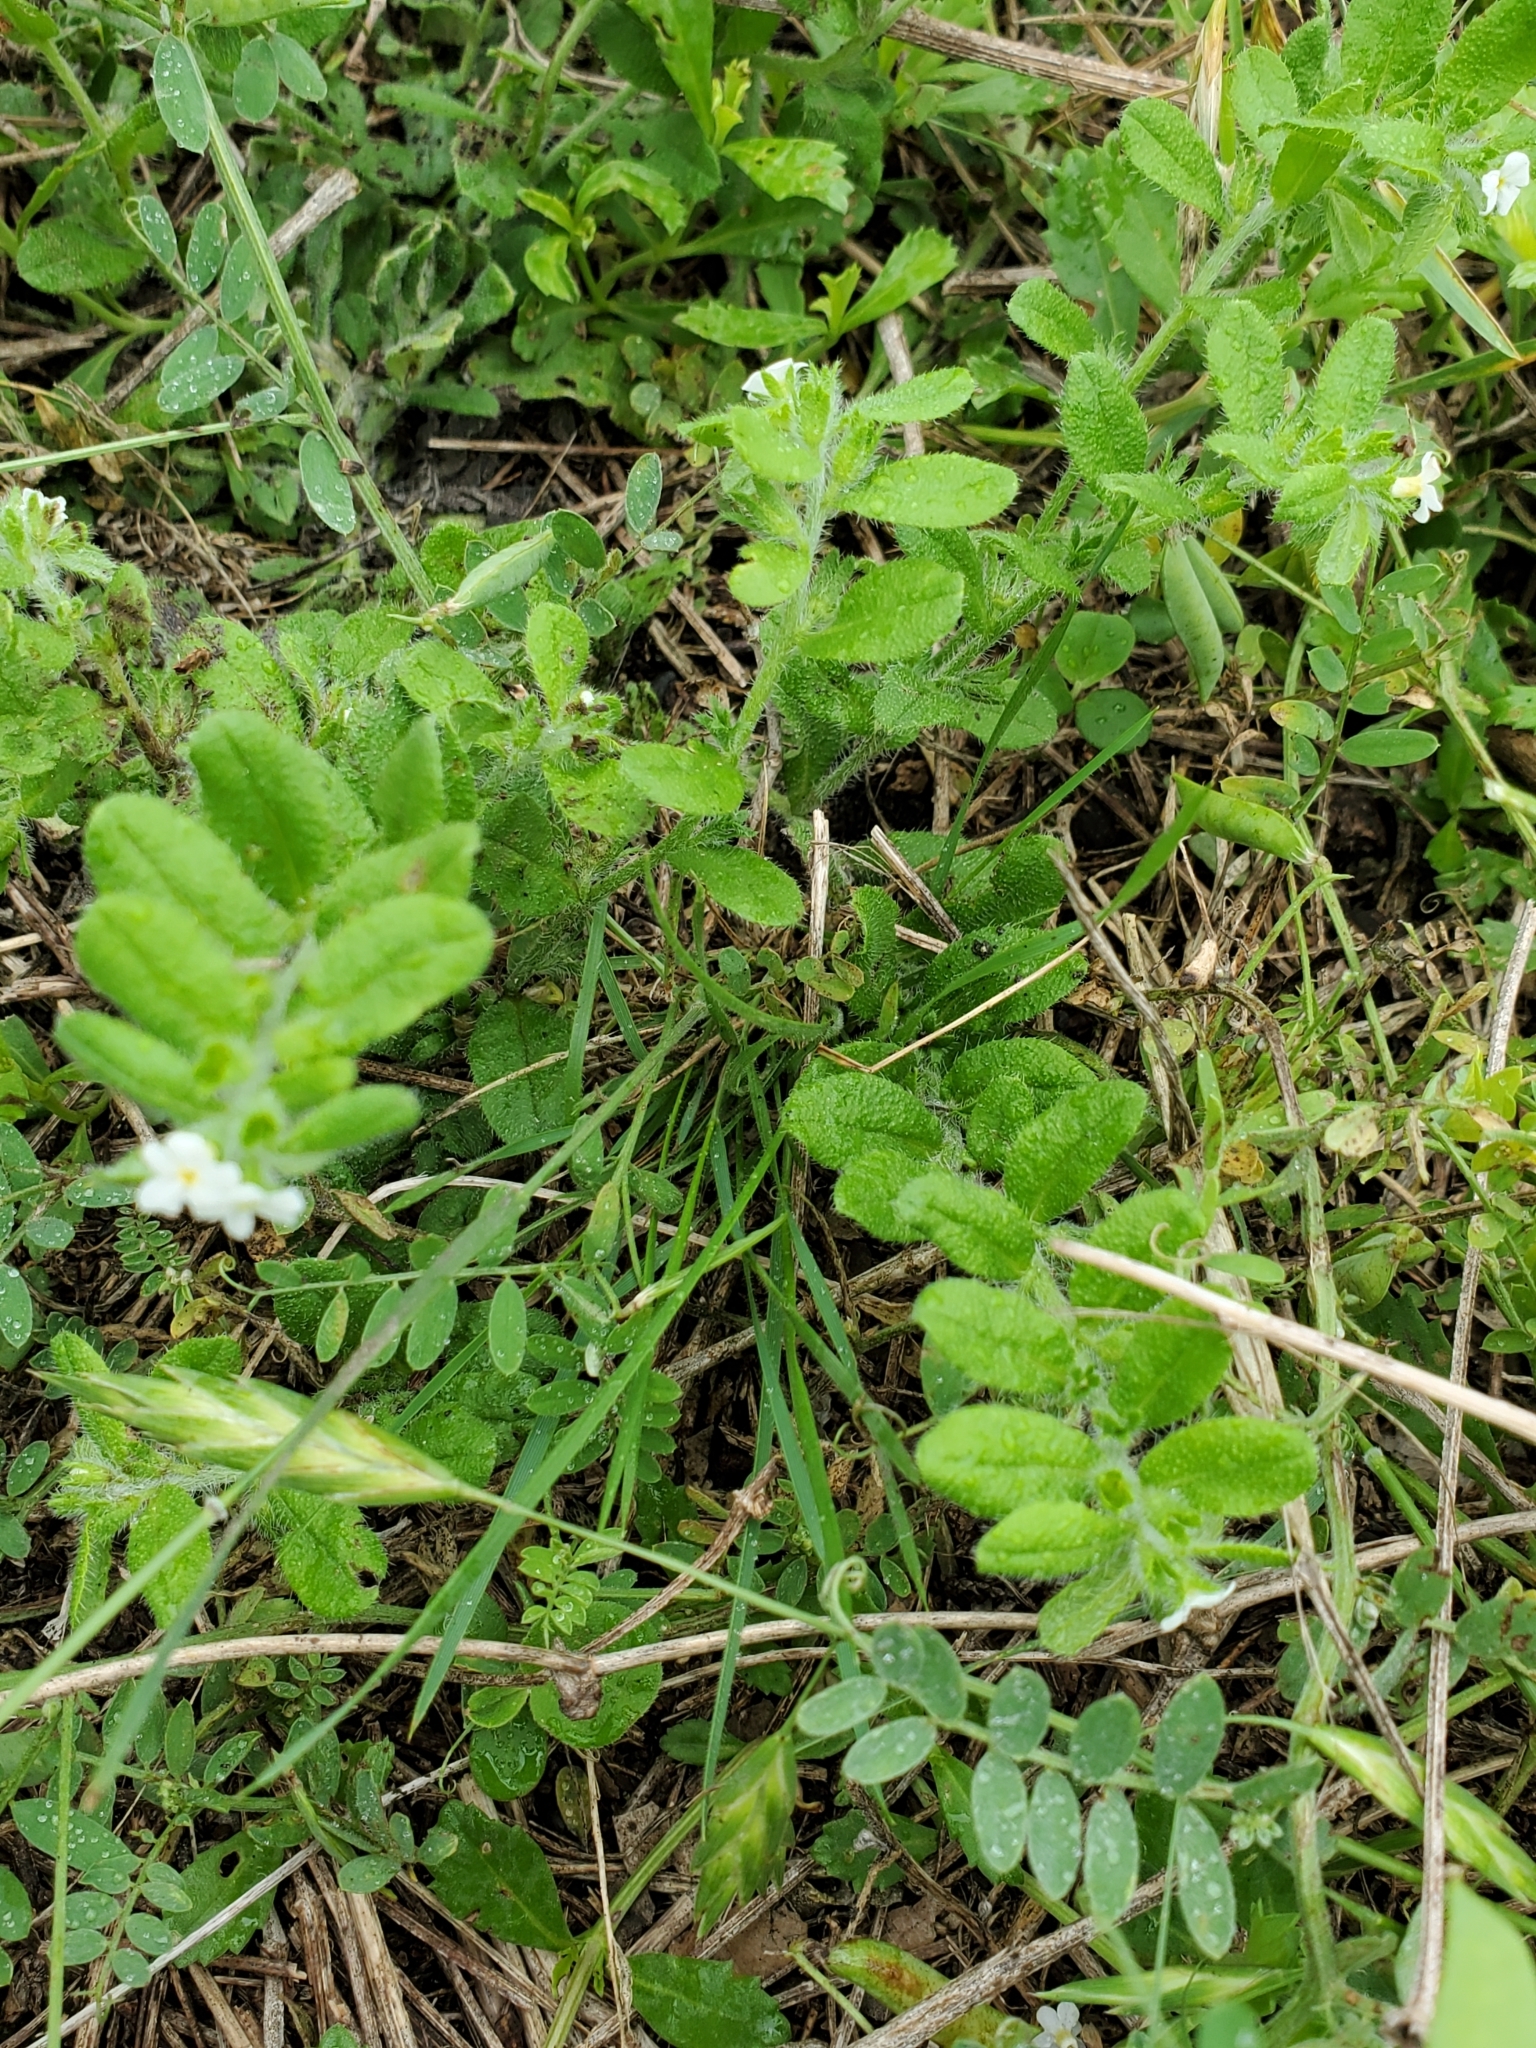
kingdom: Plantae
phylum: Tracheophyta
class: Magnoliopsida
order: Boraginales
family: Boraginaceae
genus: Lithospermum
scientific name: Lithospermum matamorense
